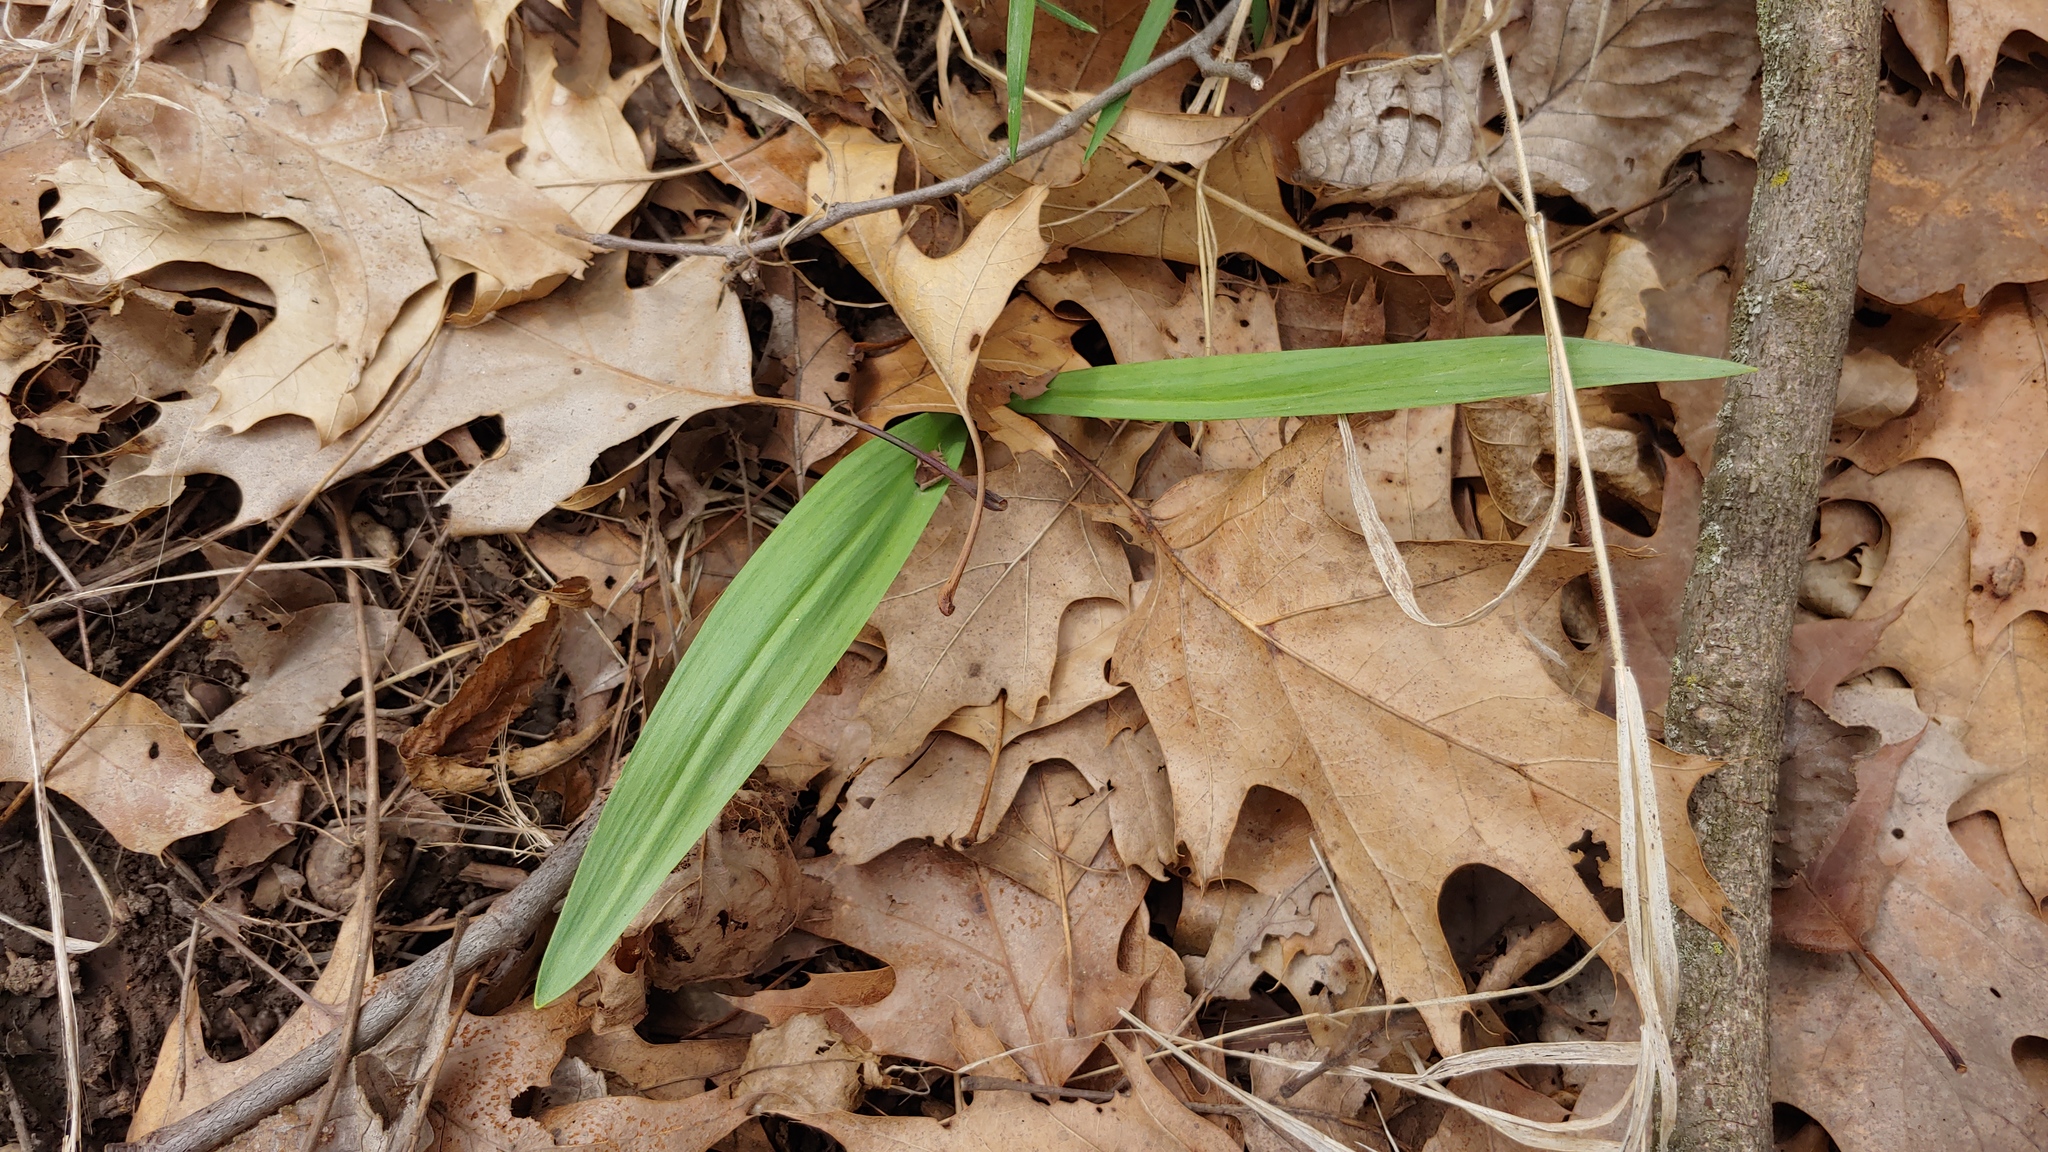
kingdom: Plantae
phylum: Tracheophyta
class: Liliopsida
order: Asparagales
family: Amaryllidaceae
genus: Allium
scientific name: Allium tricoccum
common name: Ramp
